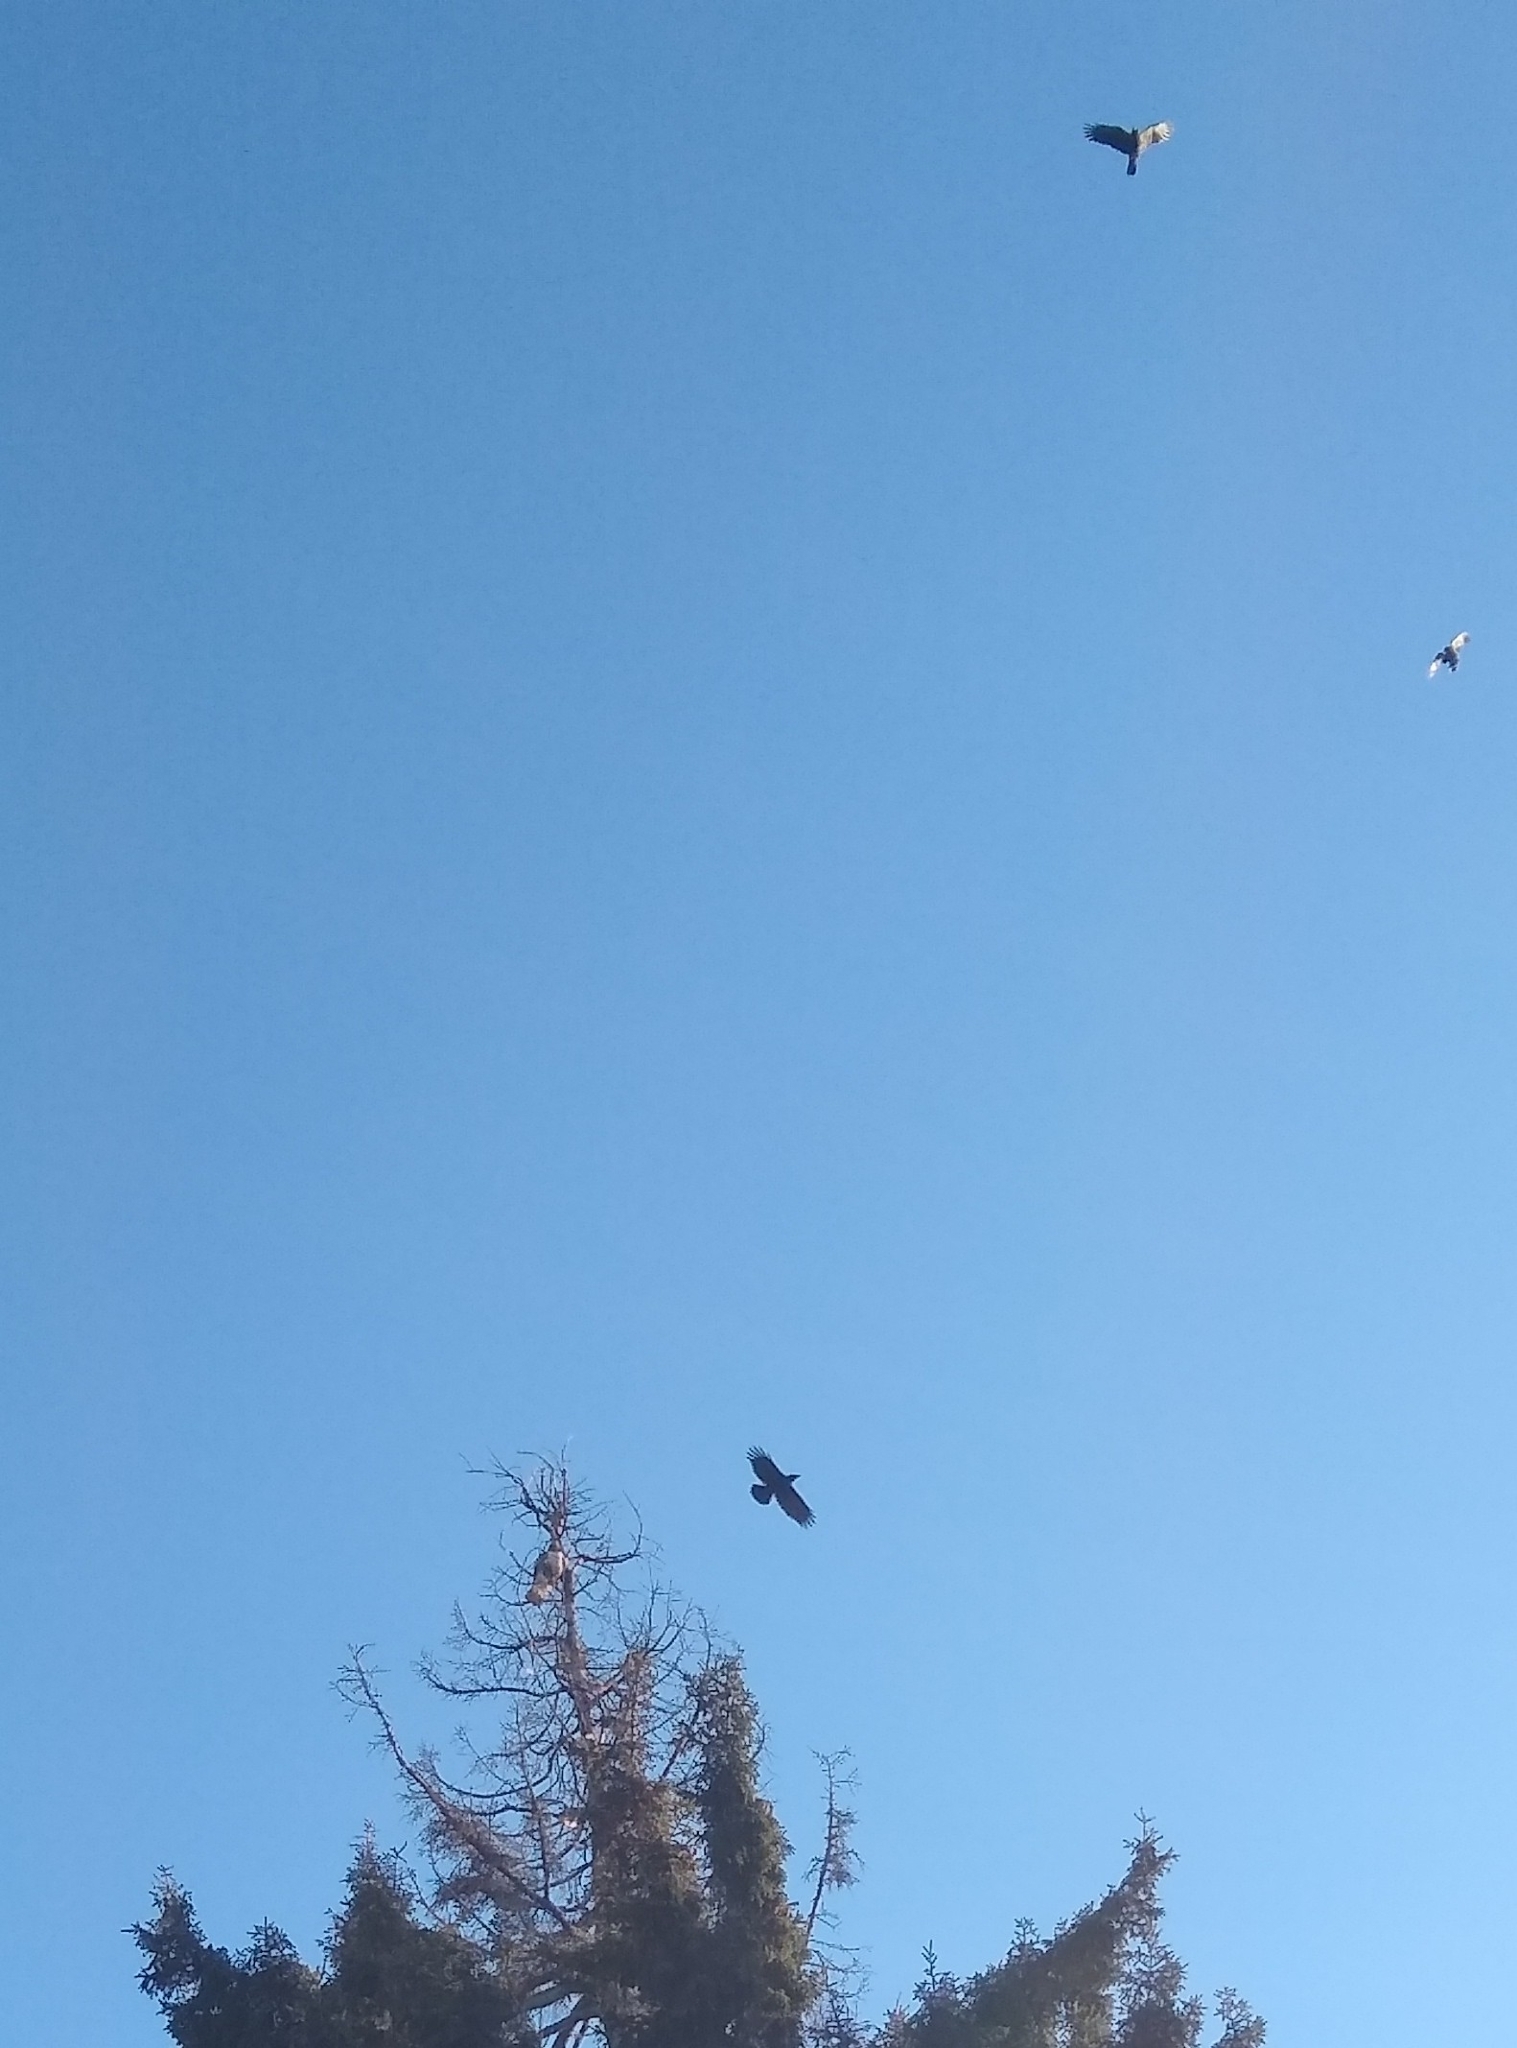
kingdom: Animalia
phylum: Chordata
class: Aves
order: Accipitriformes
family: Accipitridae
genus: Buteo
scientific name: Buteo jamaicensis
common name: Red-tailed hawk
